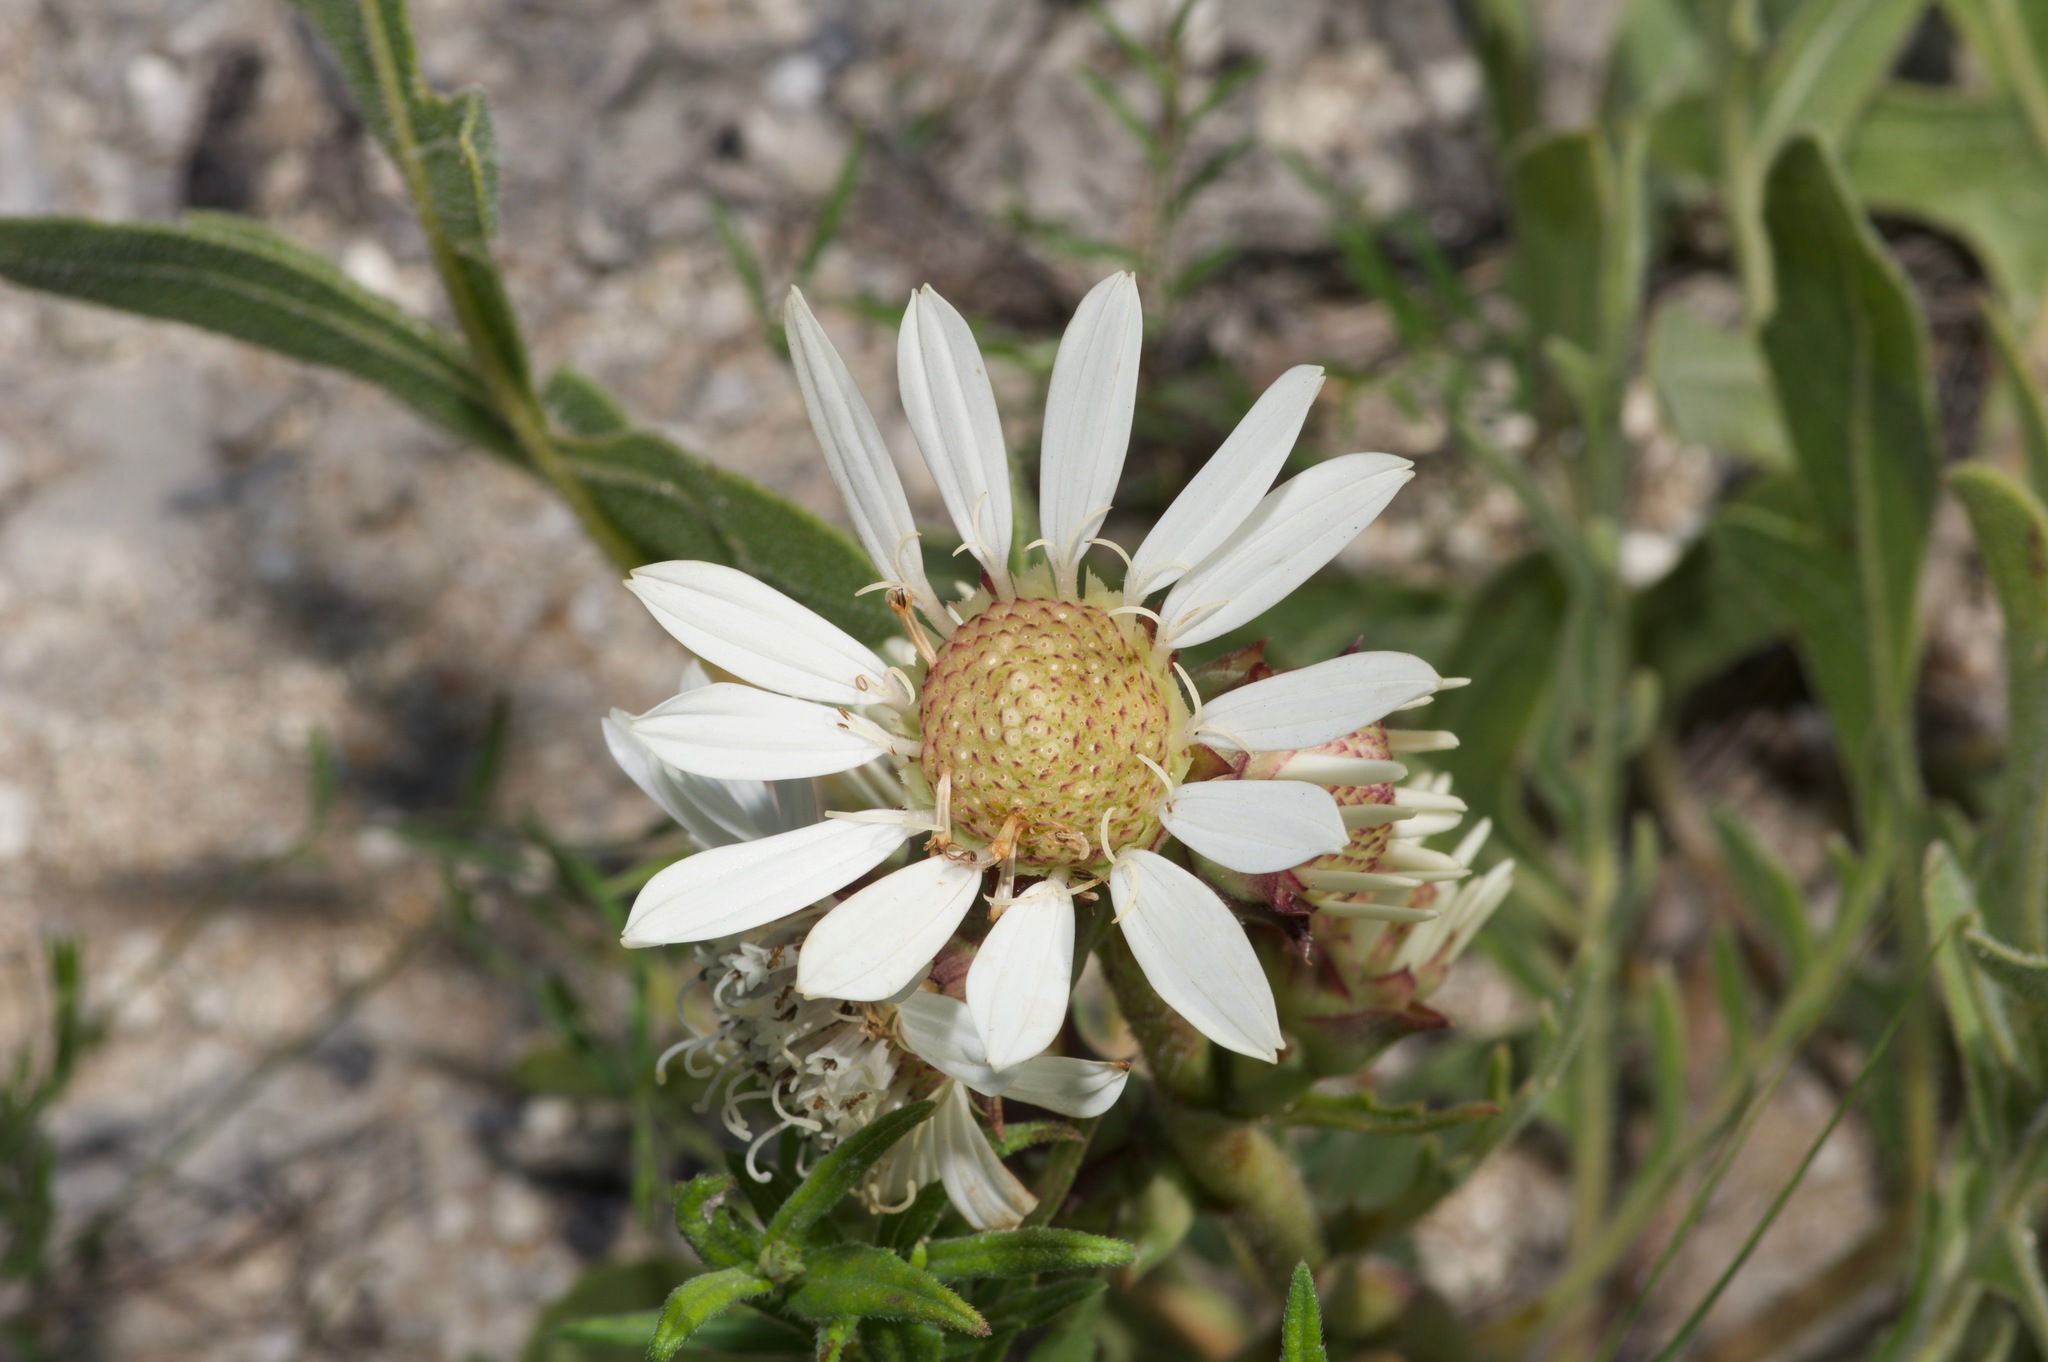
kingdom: Plantae
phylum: Tracheophyta
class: Magnoliopsida
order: Asterales
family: Asteraceae
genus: Silphium
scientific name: Silphium albiflorum
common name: White rosinweed
